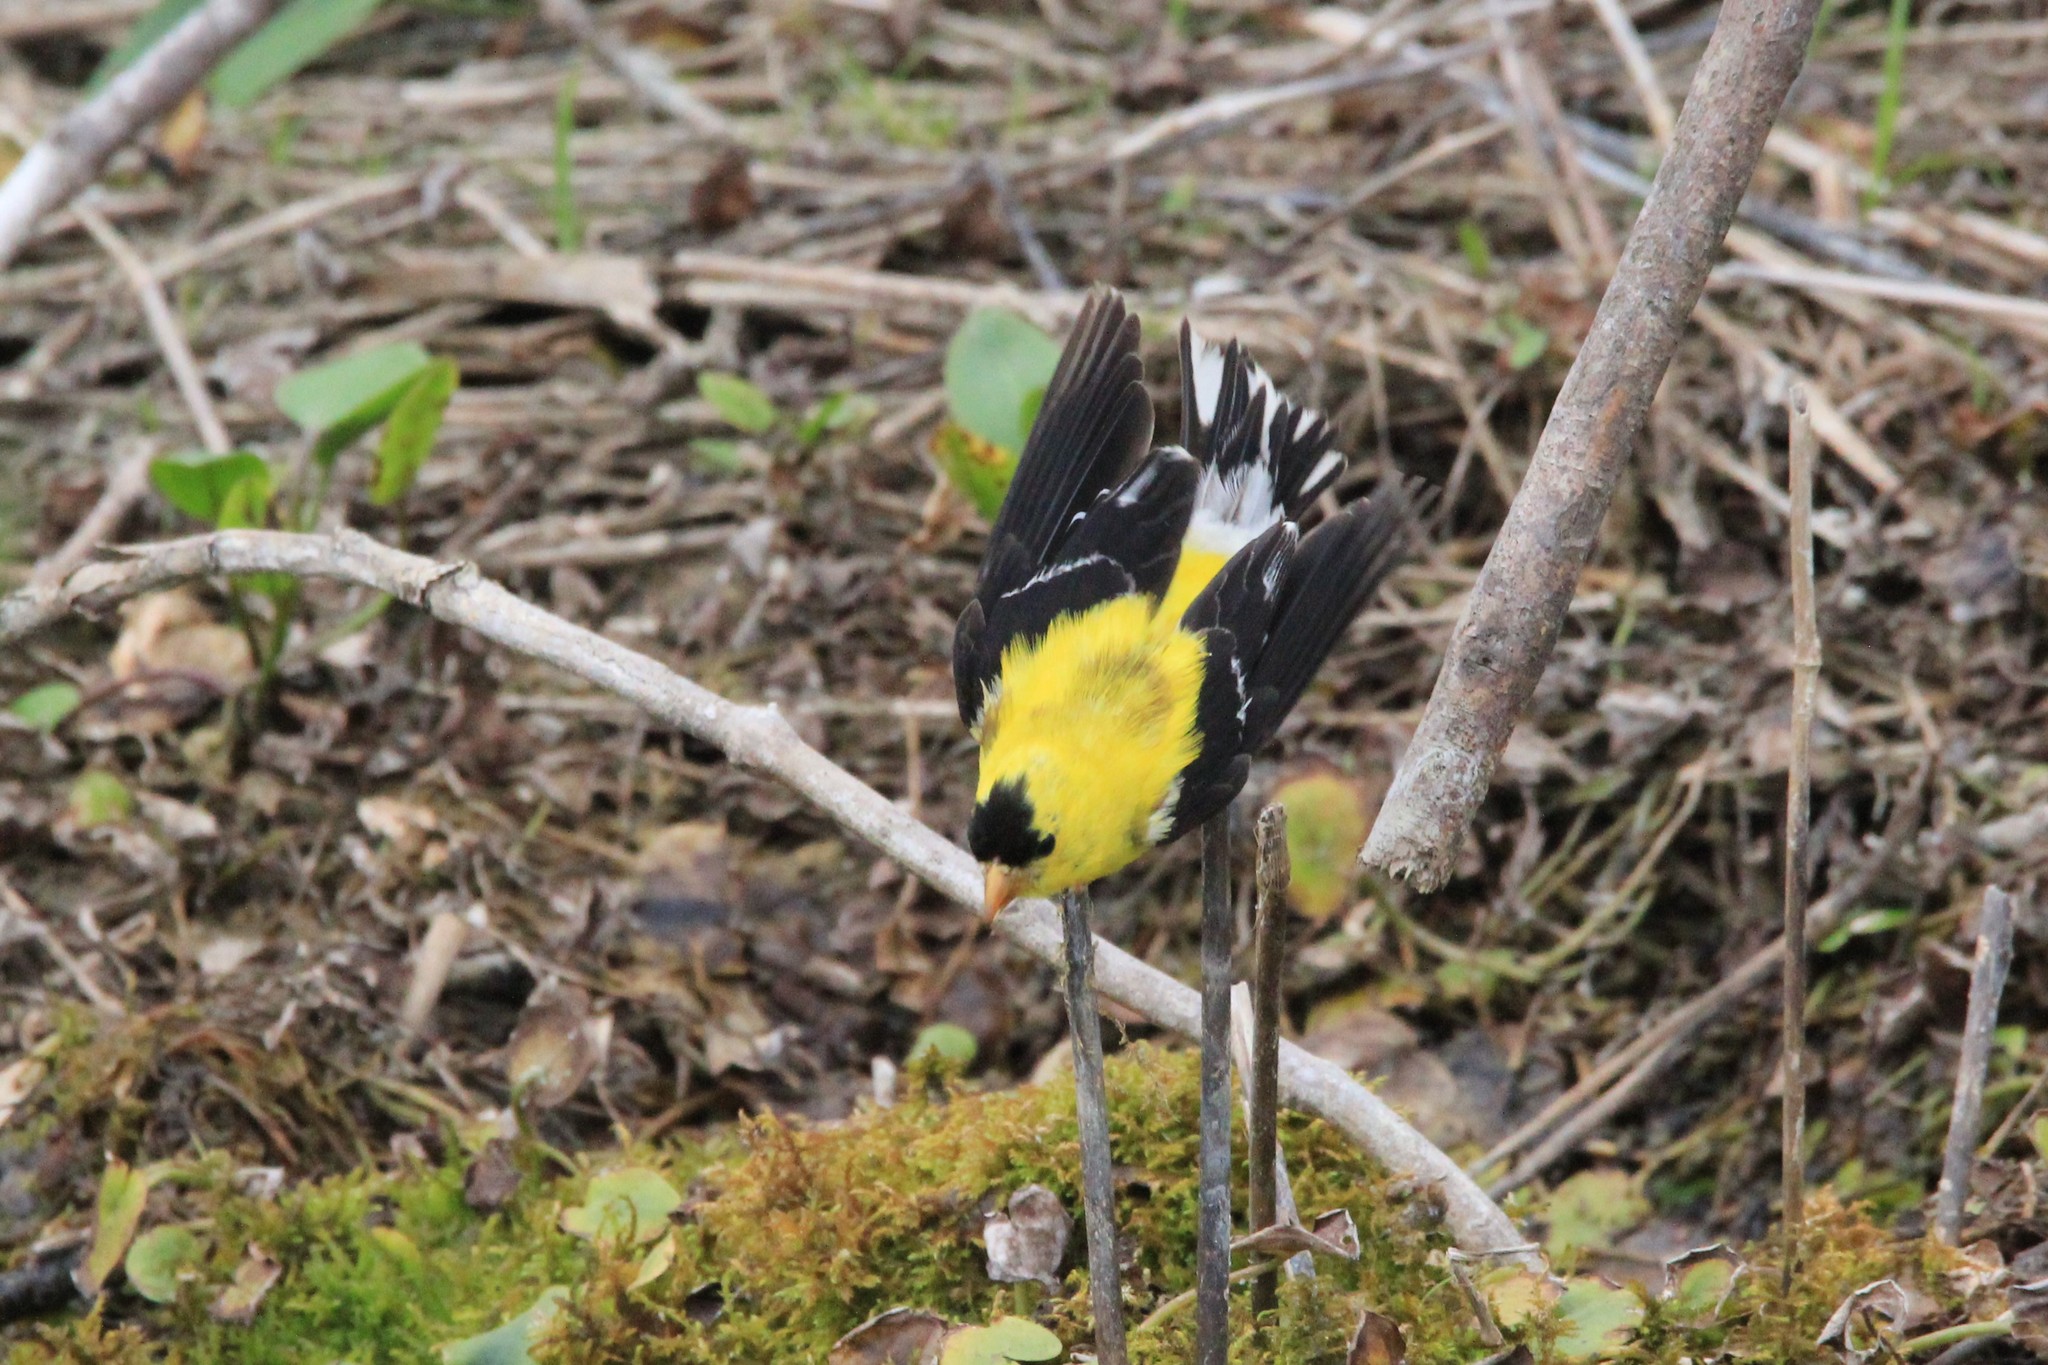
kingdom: Animalia
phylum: Chordata
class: Aves
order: Passeriformes
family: Fringillidae
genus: Spinus
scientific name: Spinus tristis
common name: American goldfinch
